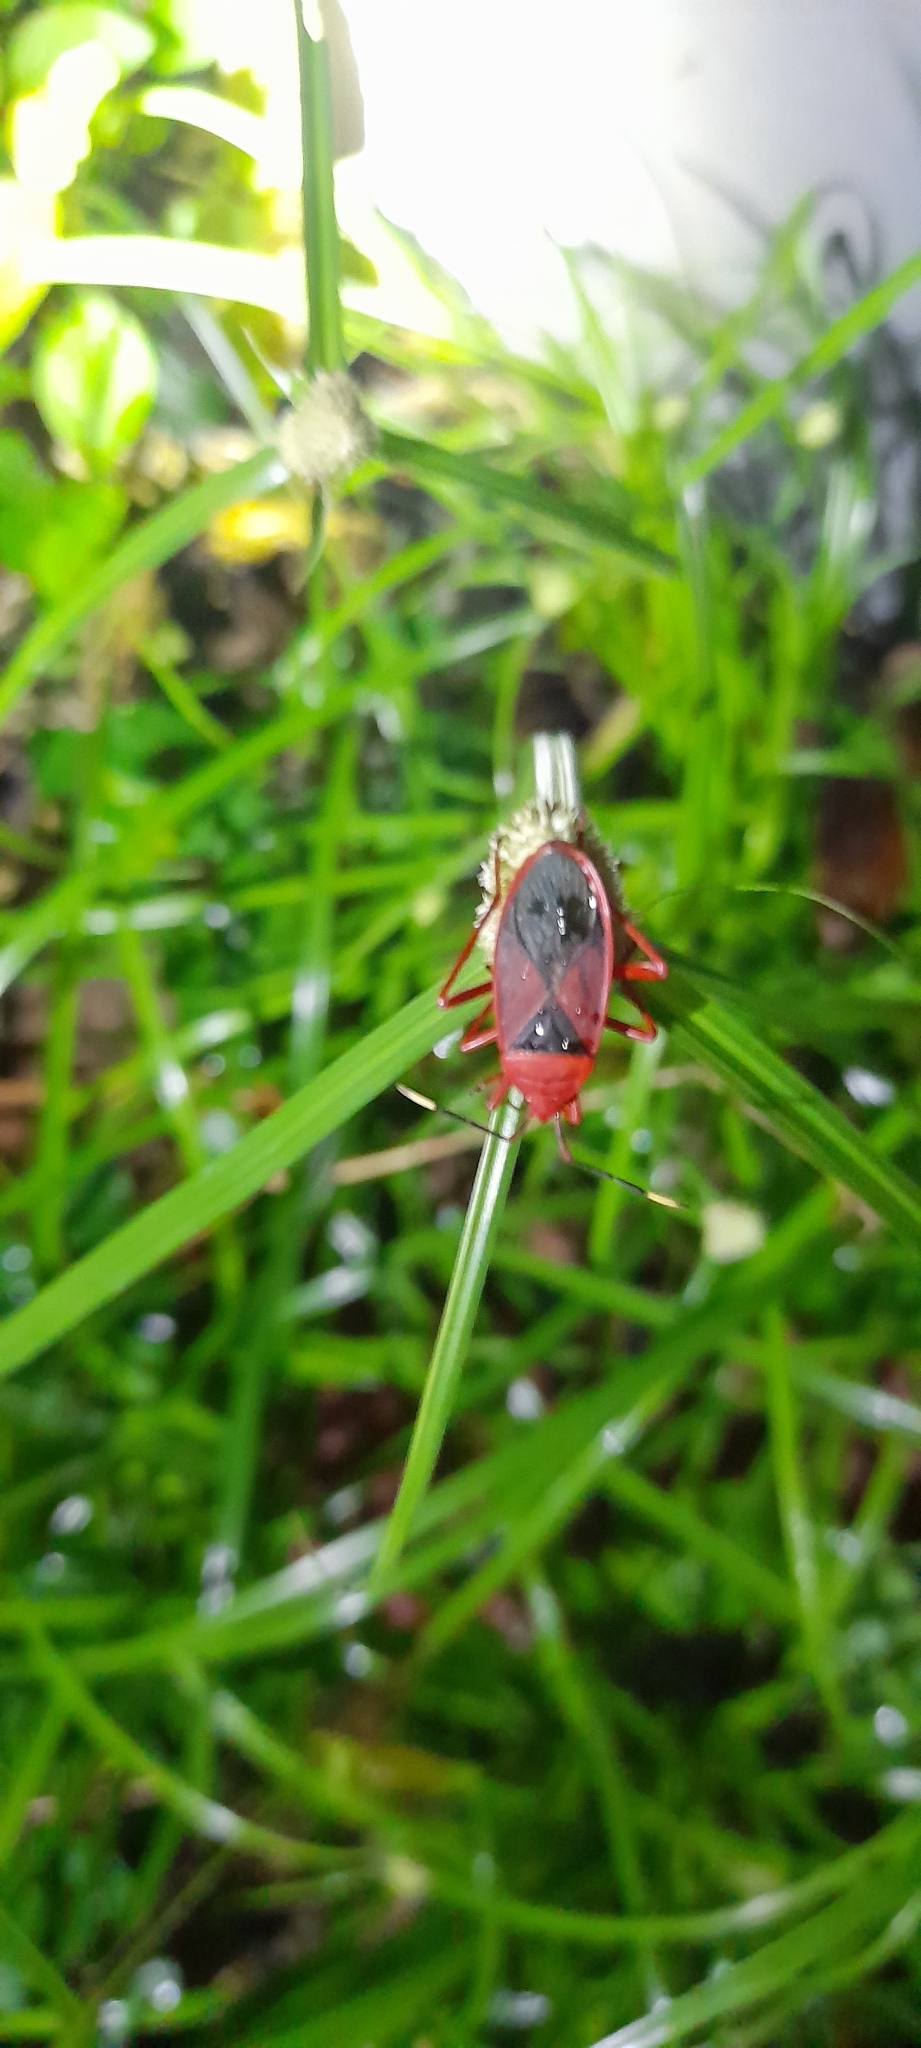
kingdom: Animalia
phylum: Arthropoda
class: Insecta
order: Hemiptera
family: Pyrrhocoridae
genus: Probergrothius
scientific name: Probergrothius
